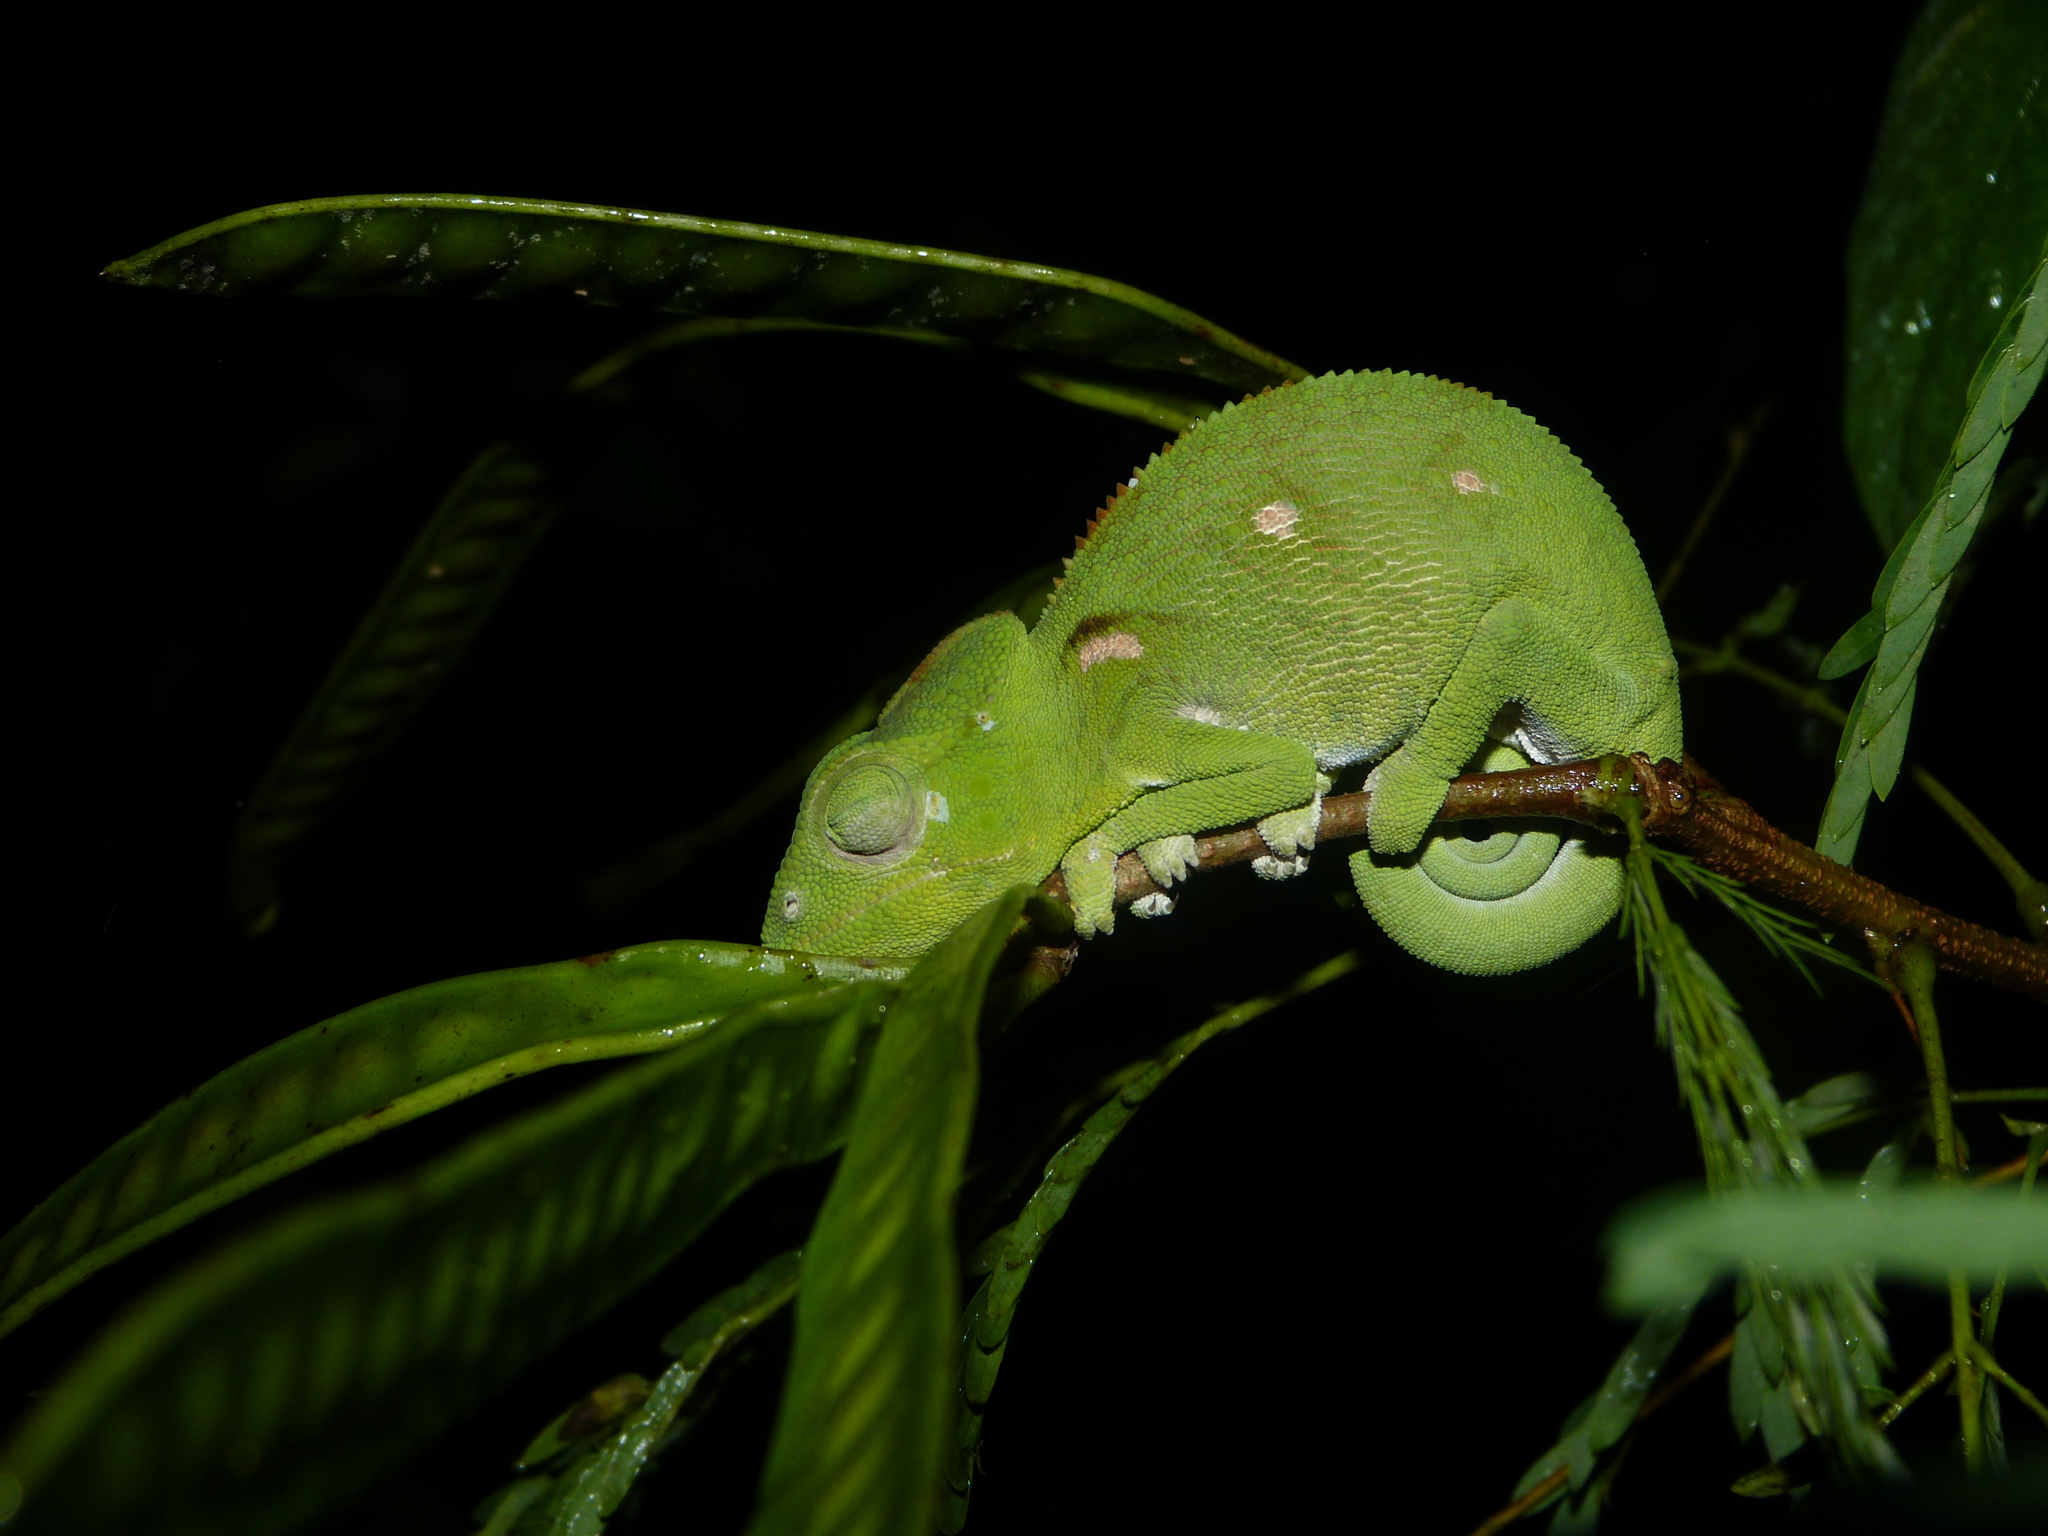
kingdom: Animalia
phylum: Chordata
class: Squamata
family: Chamaeleonidae
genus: Furcifer
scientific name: Furcifer oustaleti
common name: Oustalet's chameleon
